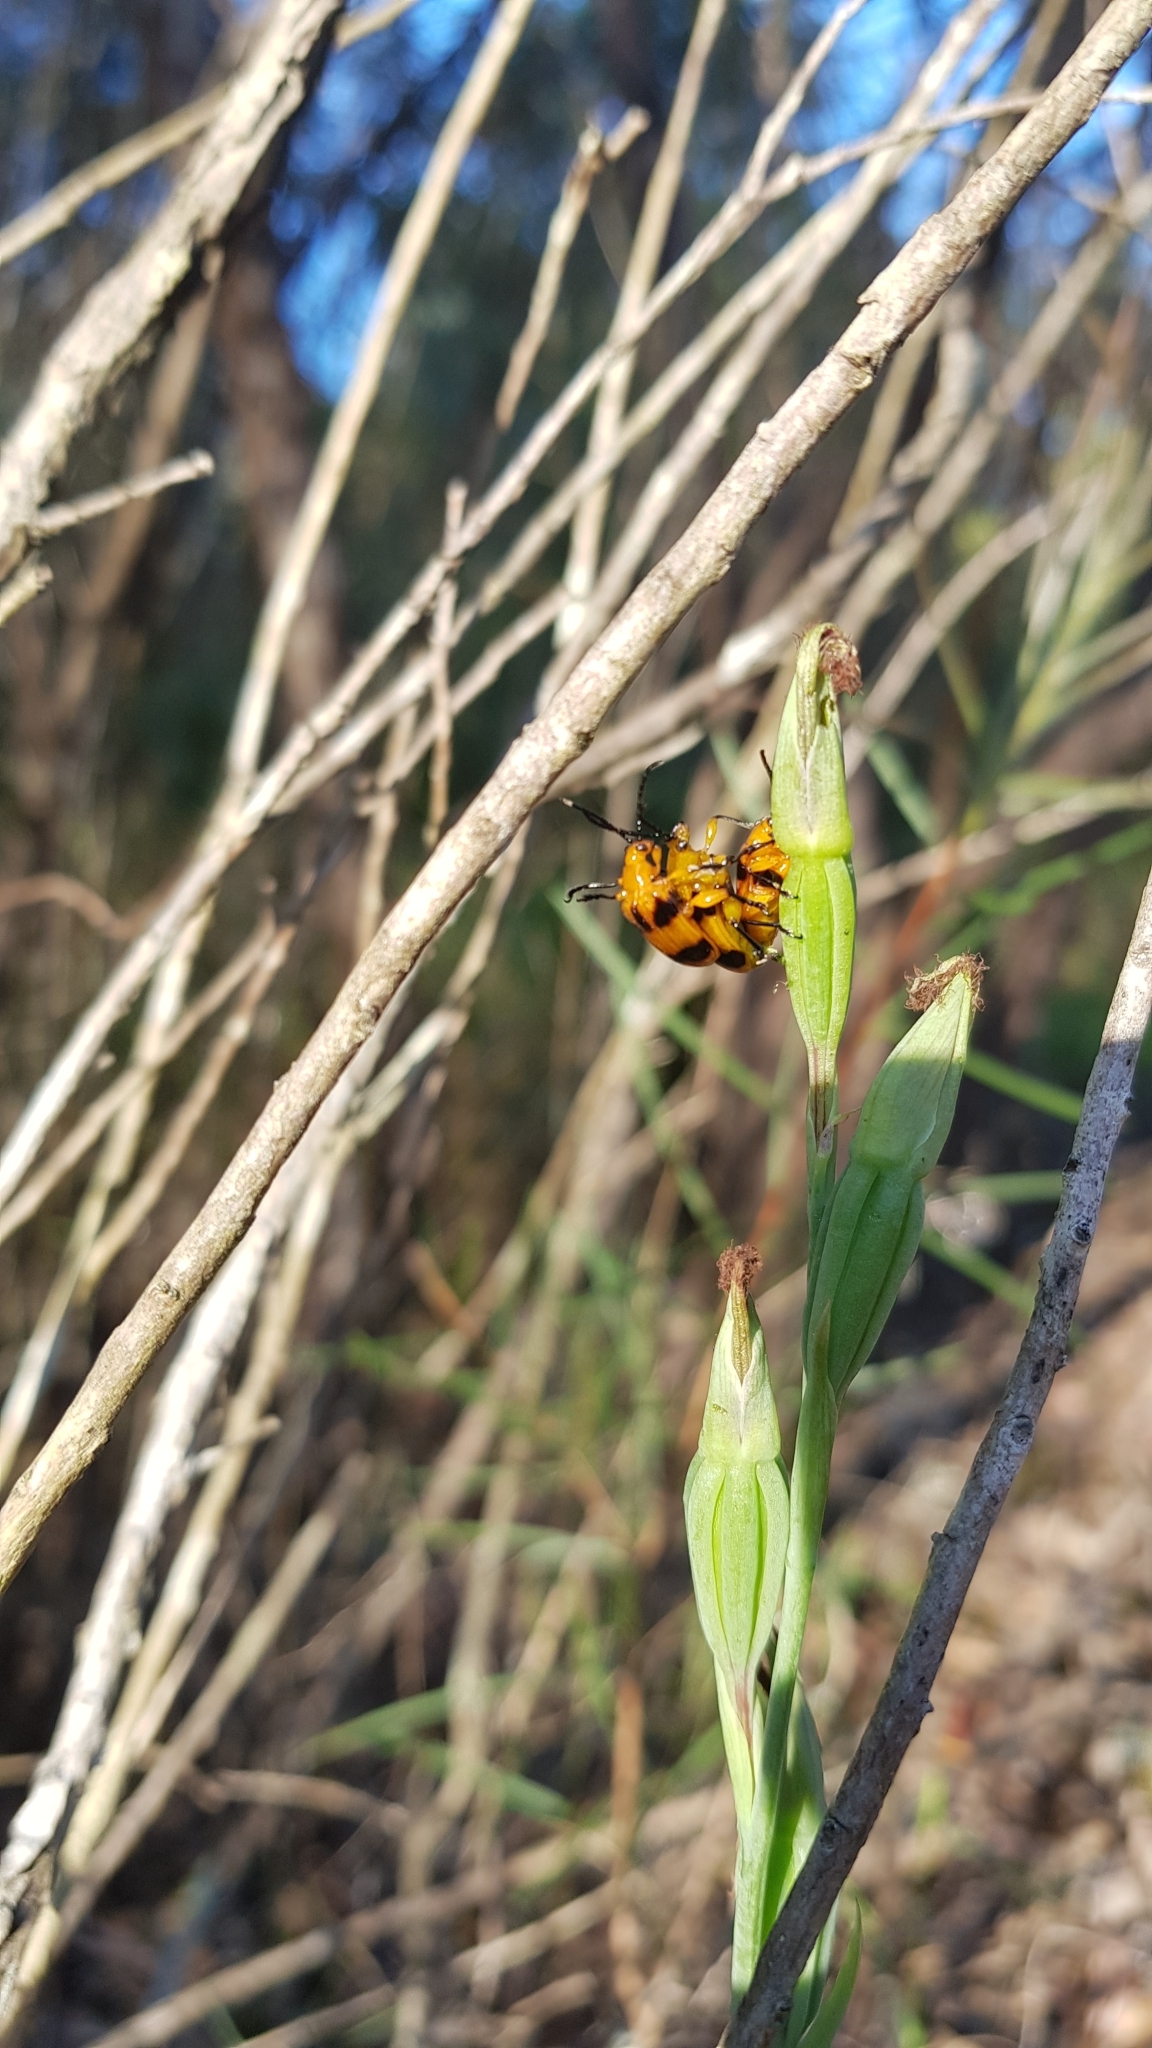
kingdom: Animalia
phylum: Arthropoda
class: Insecta
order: Coleoptera
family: Chrysomelidae
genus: Stethopachys
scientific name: Stethopachys formosa
